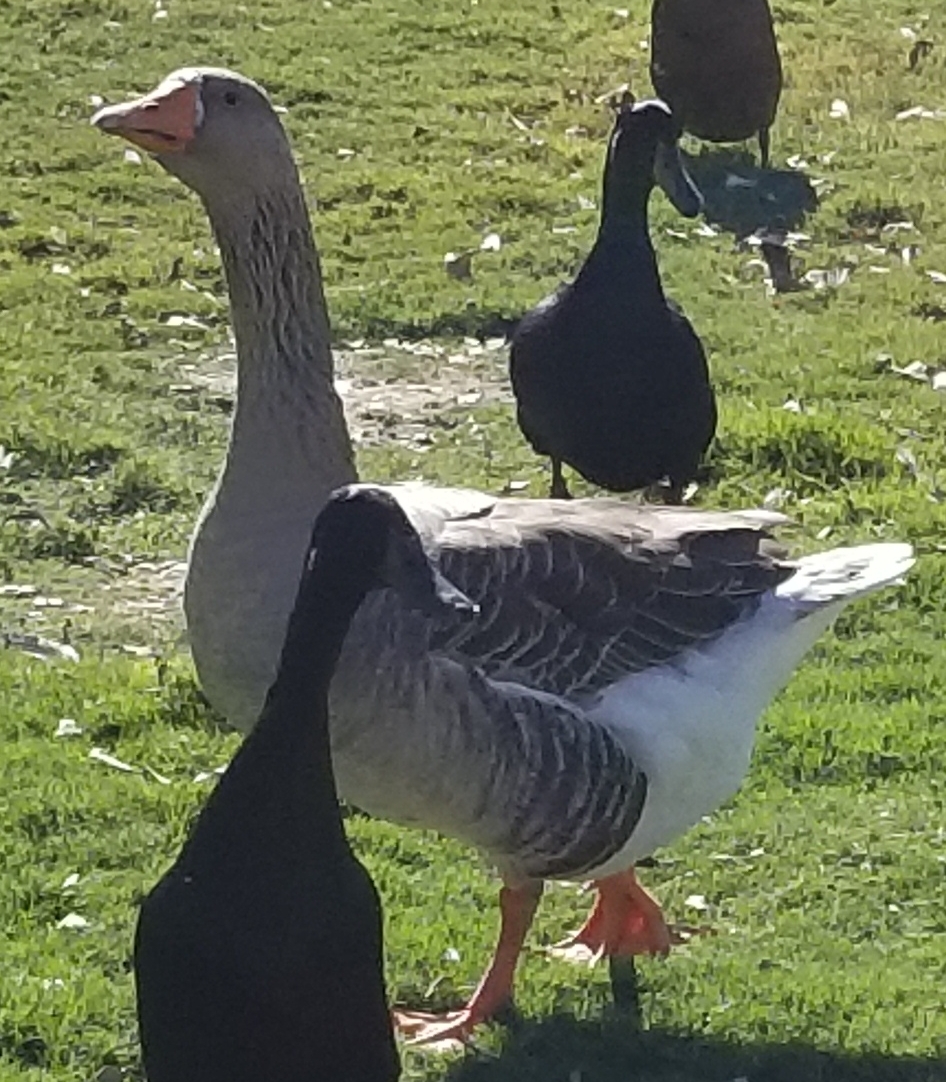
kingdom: Animalia
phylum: Chordata
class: Aves
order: Anseriformes
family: Anatidae
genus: Anser
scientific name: Anser anser
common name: Greylag goose
